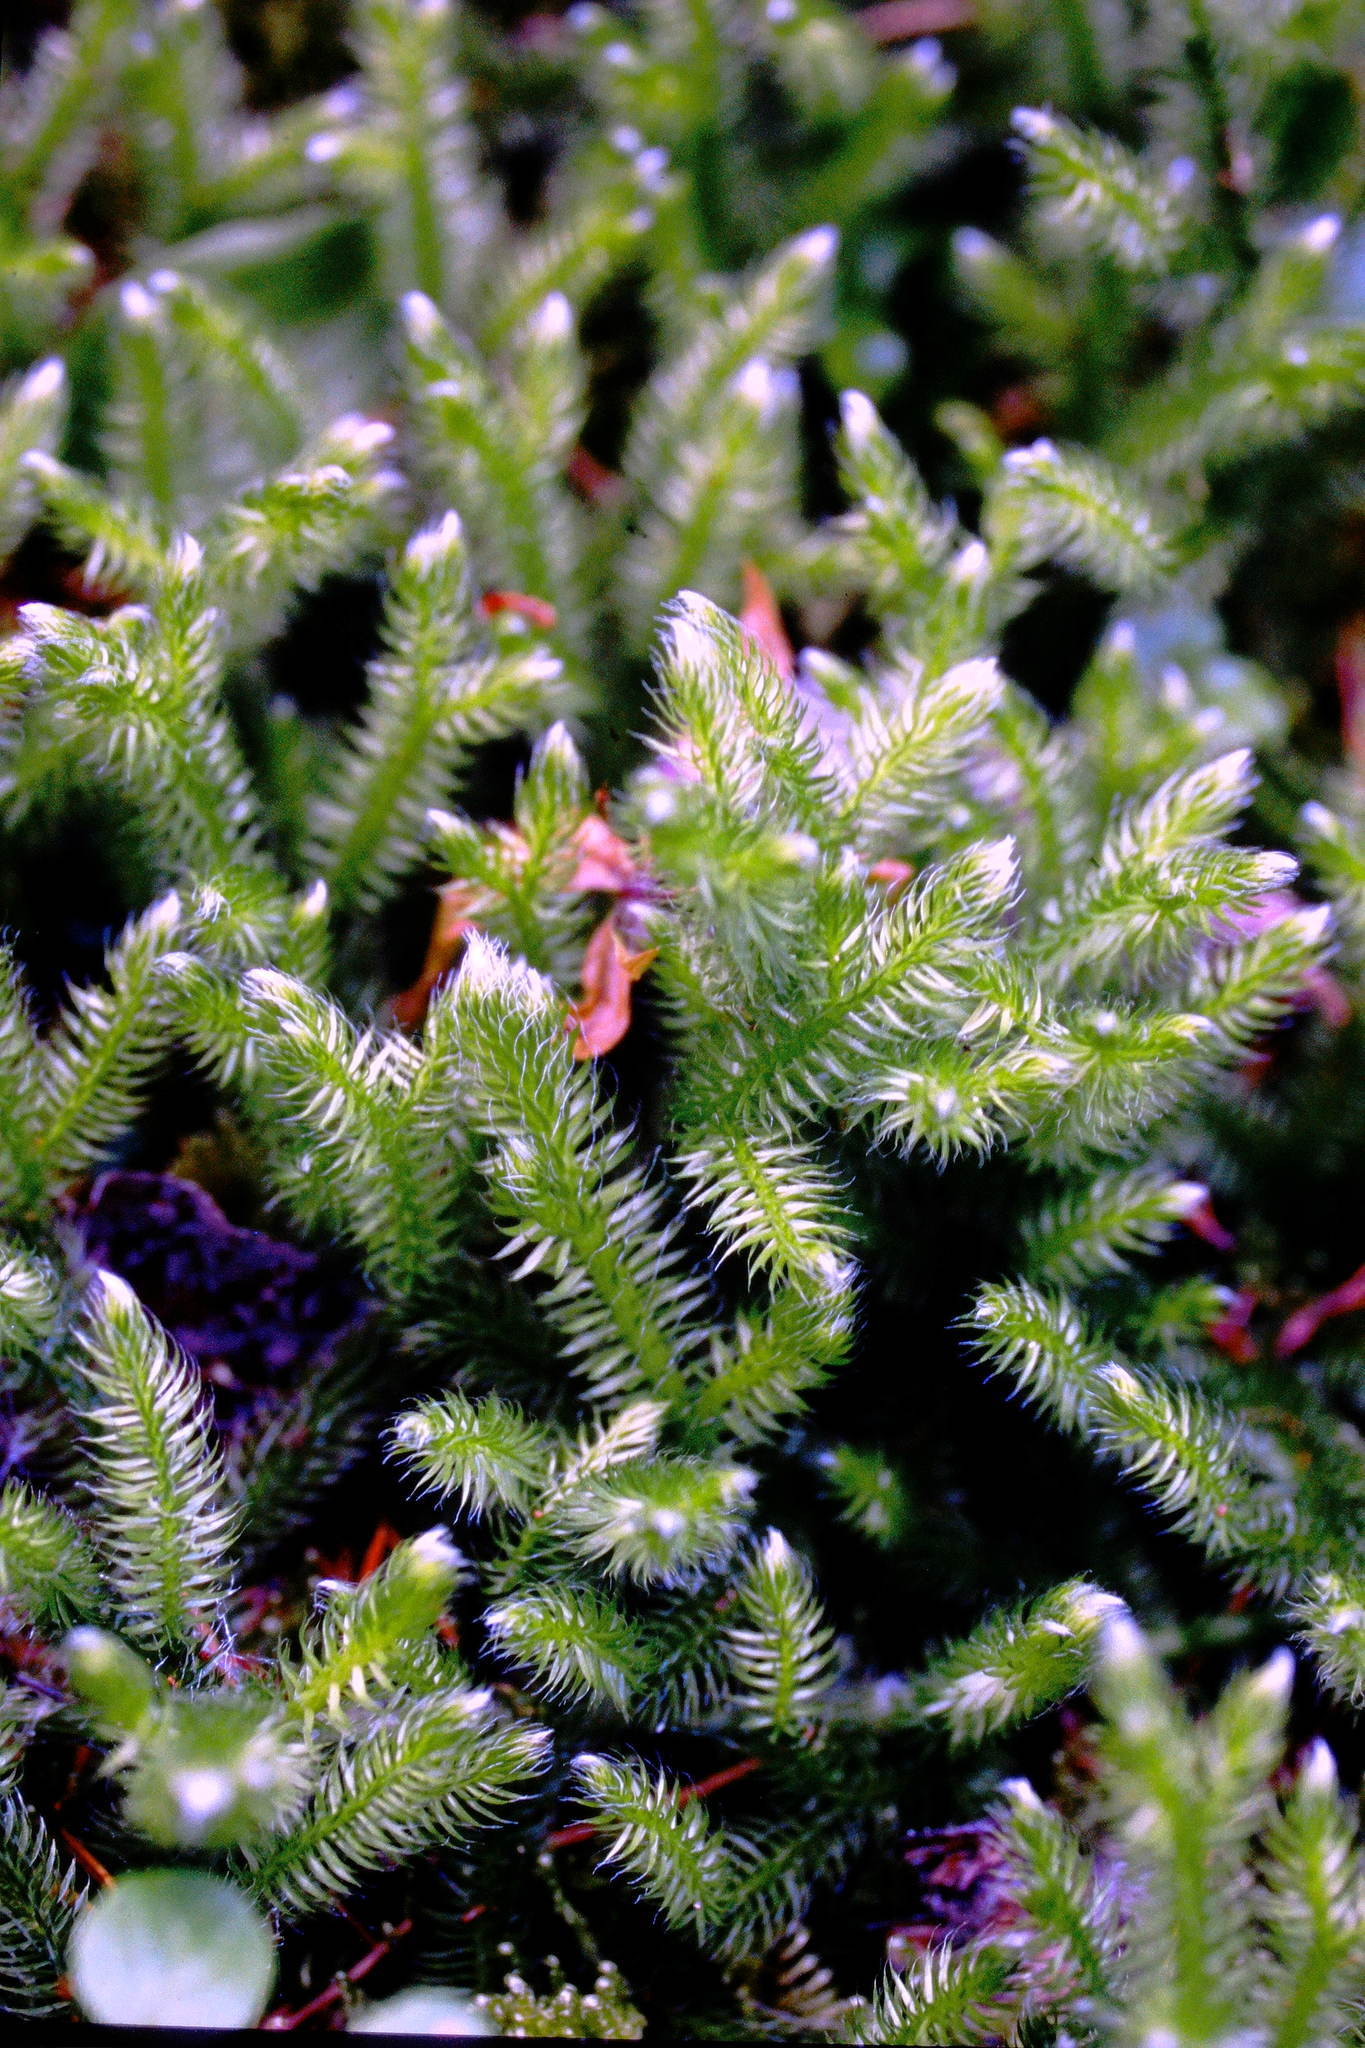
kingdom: Plantae
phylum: Tracheophyta
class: Lycopodiopsida
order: Lycopodiales
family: Lycopodiaceae
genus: Lycopodium
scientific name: Lycopodium clavatum
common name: Stag's-horn clubmoss
